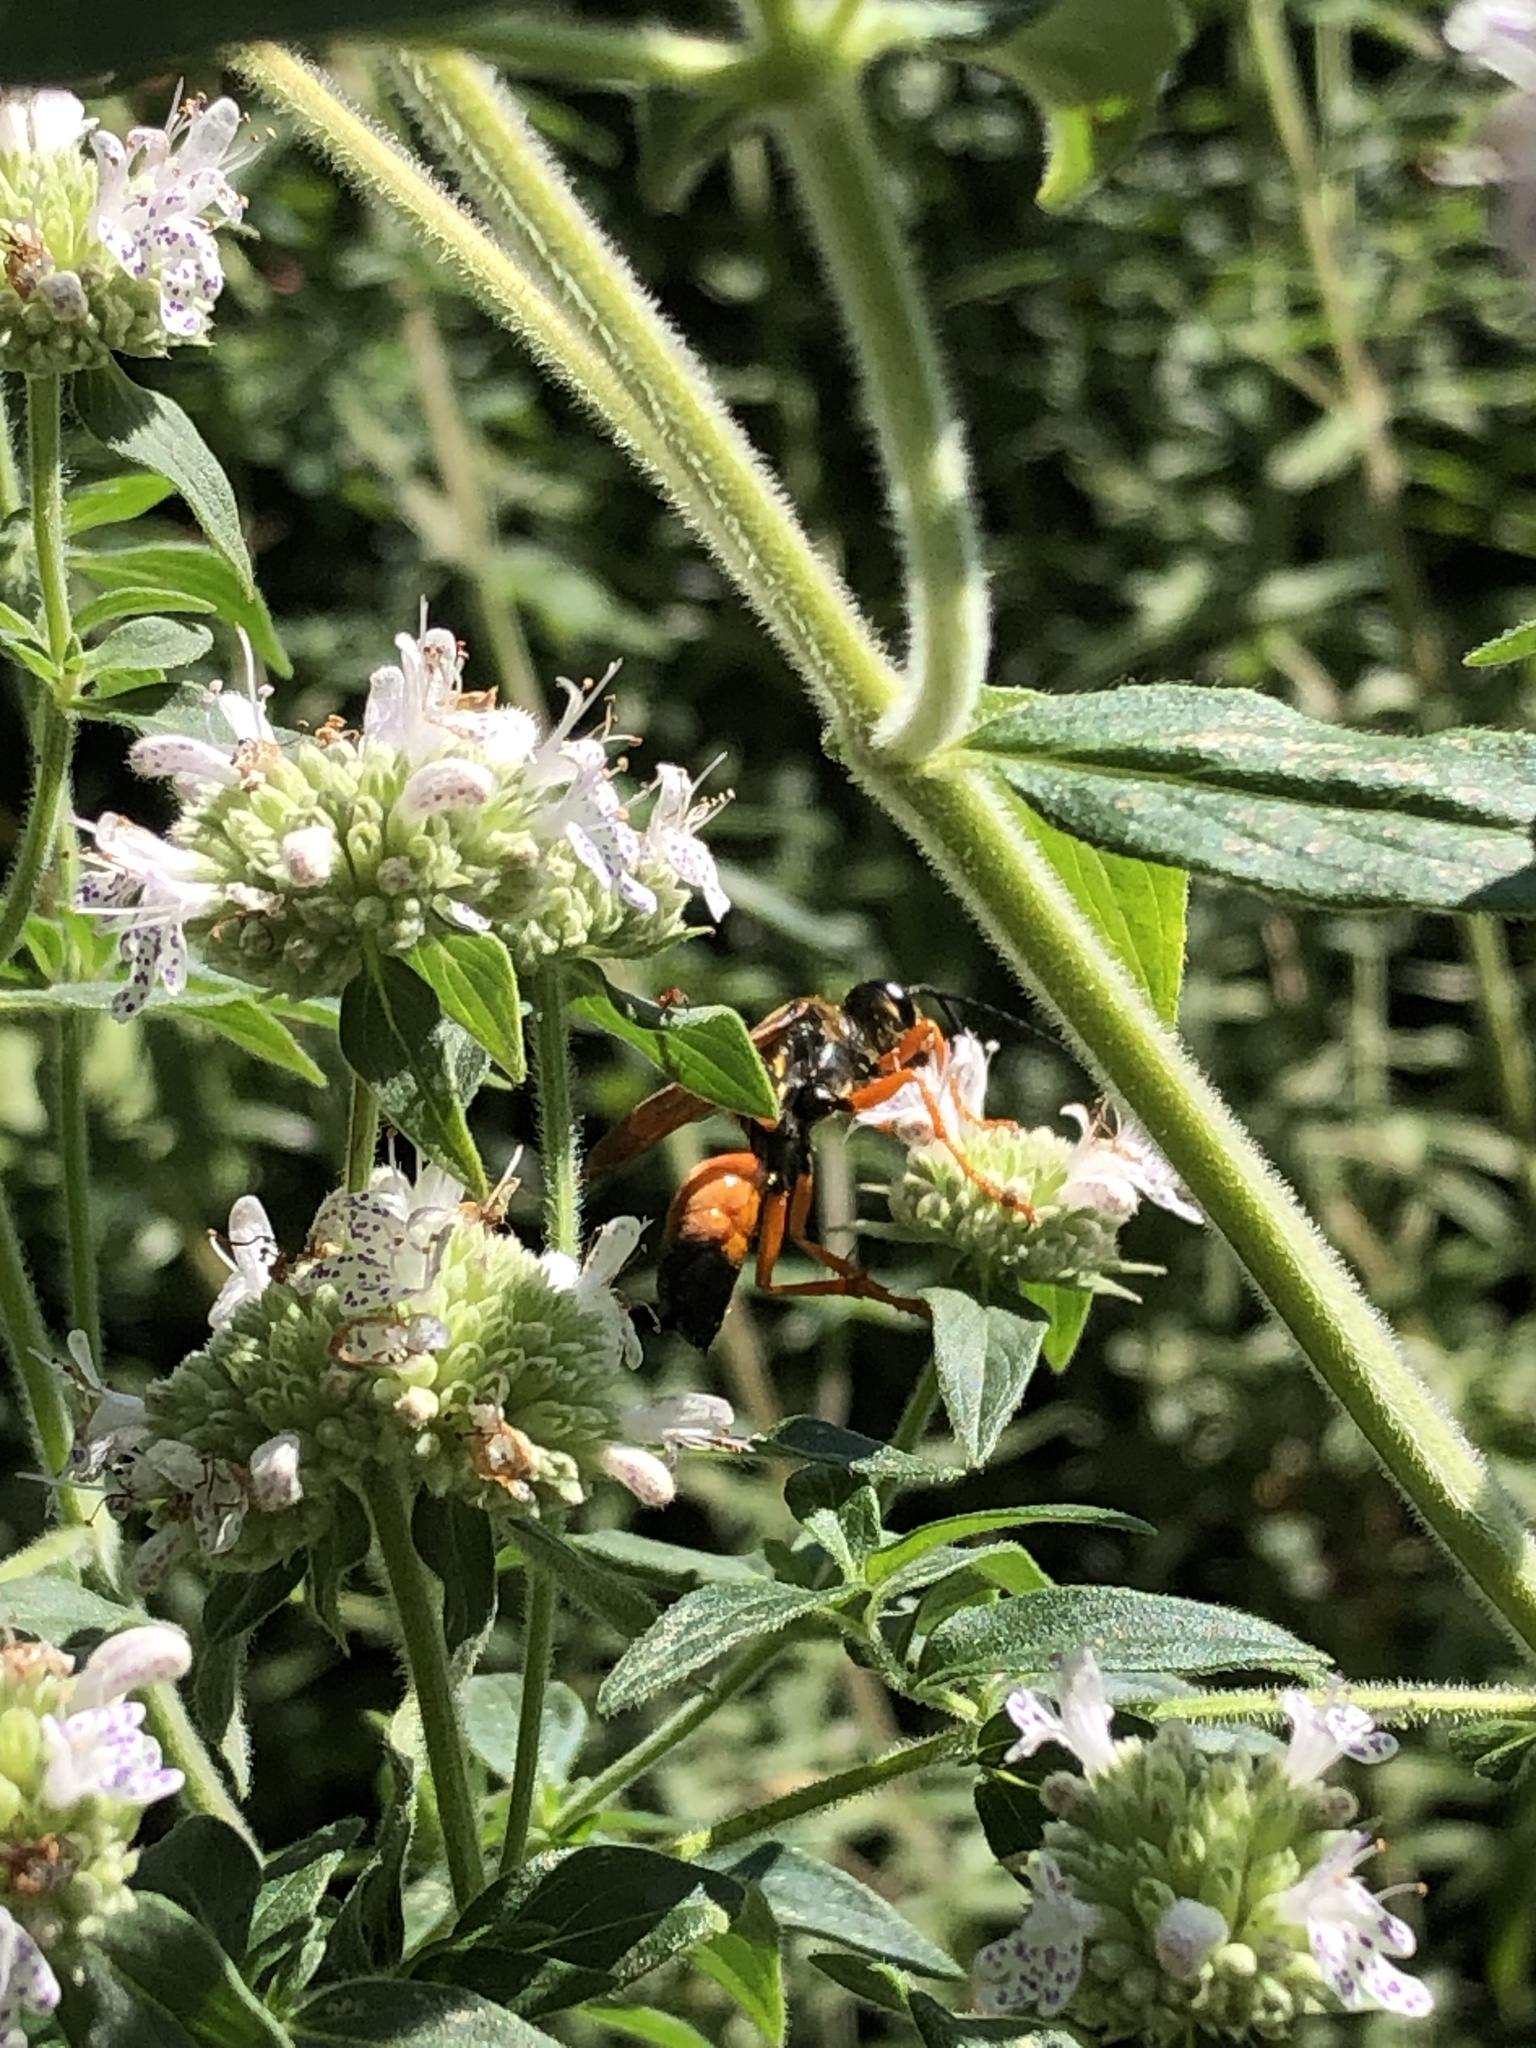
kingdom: Animalia
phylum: Arthropoda
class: Insecta
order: Hymenoptera
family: Sphecidae
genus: Sphex
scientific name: Sphex ichneumoneus
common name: Great golden digger wasp
